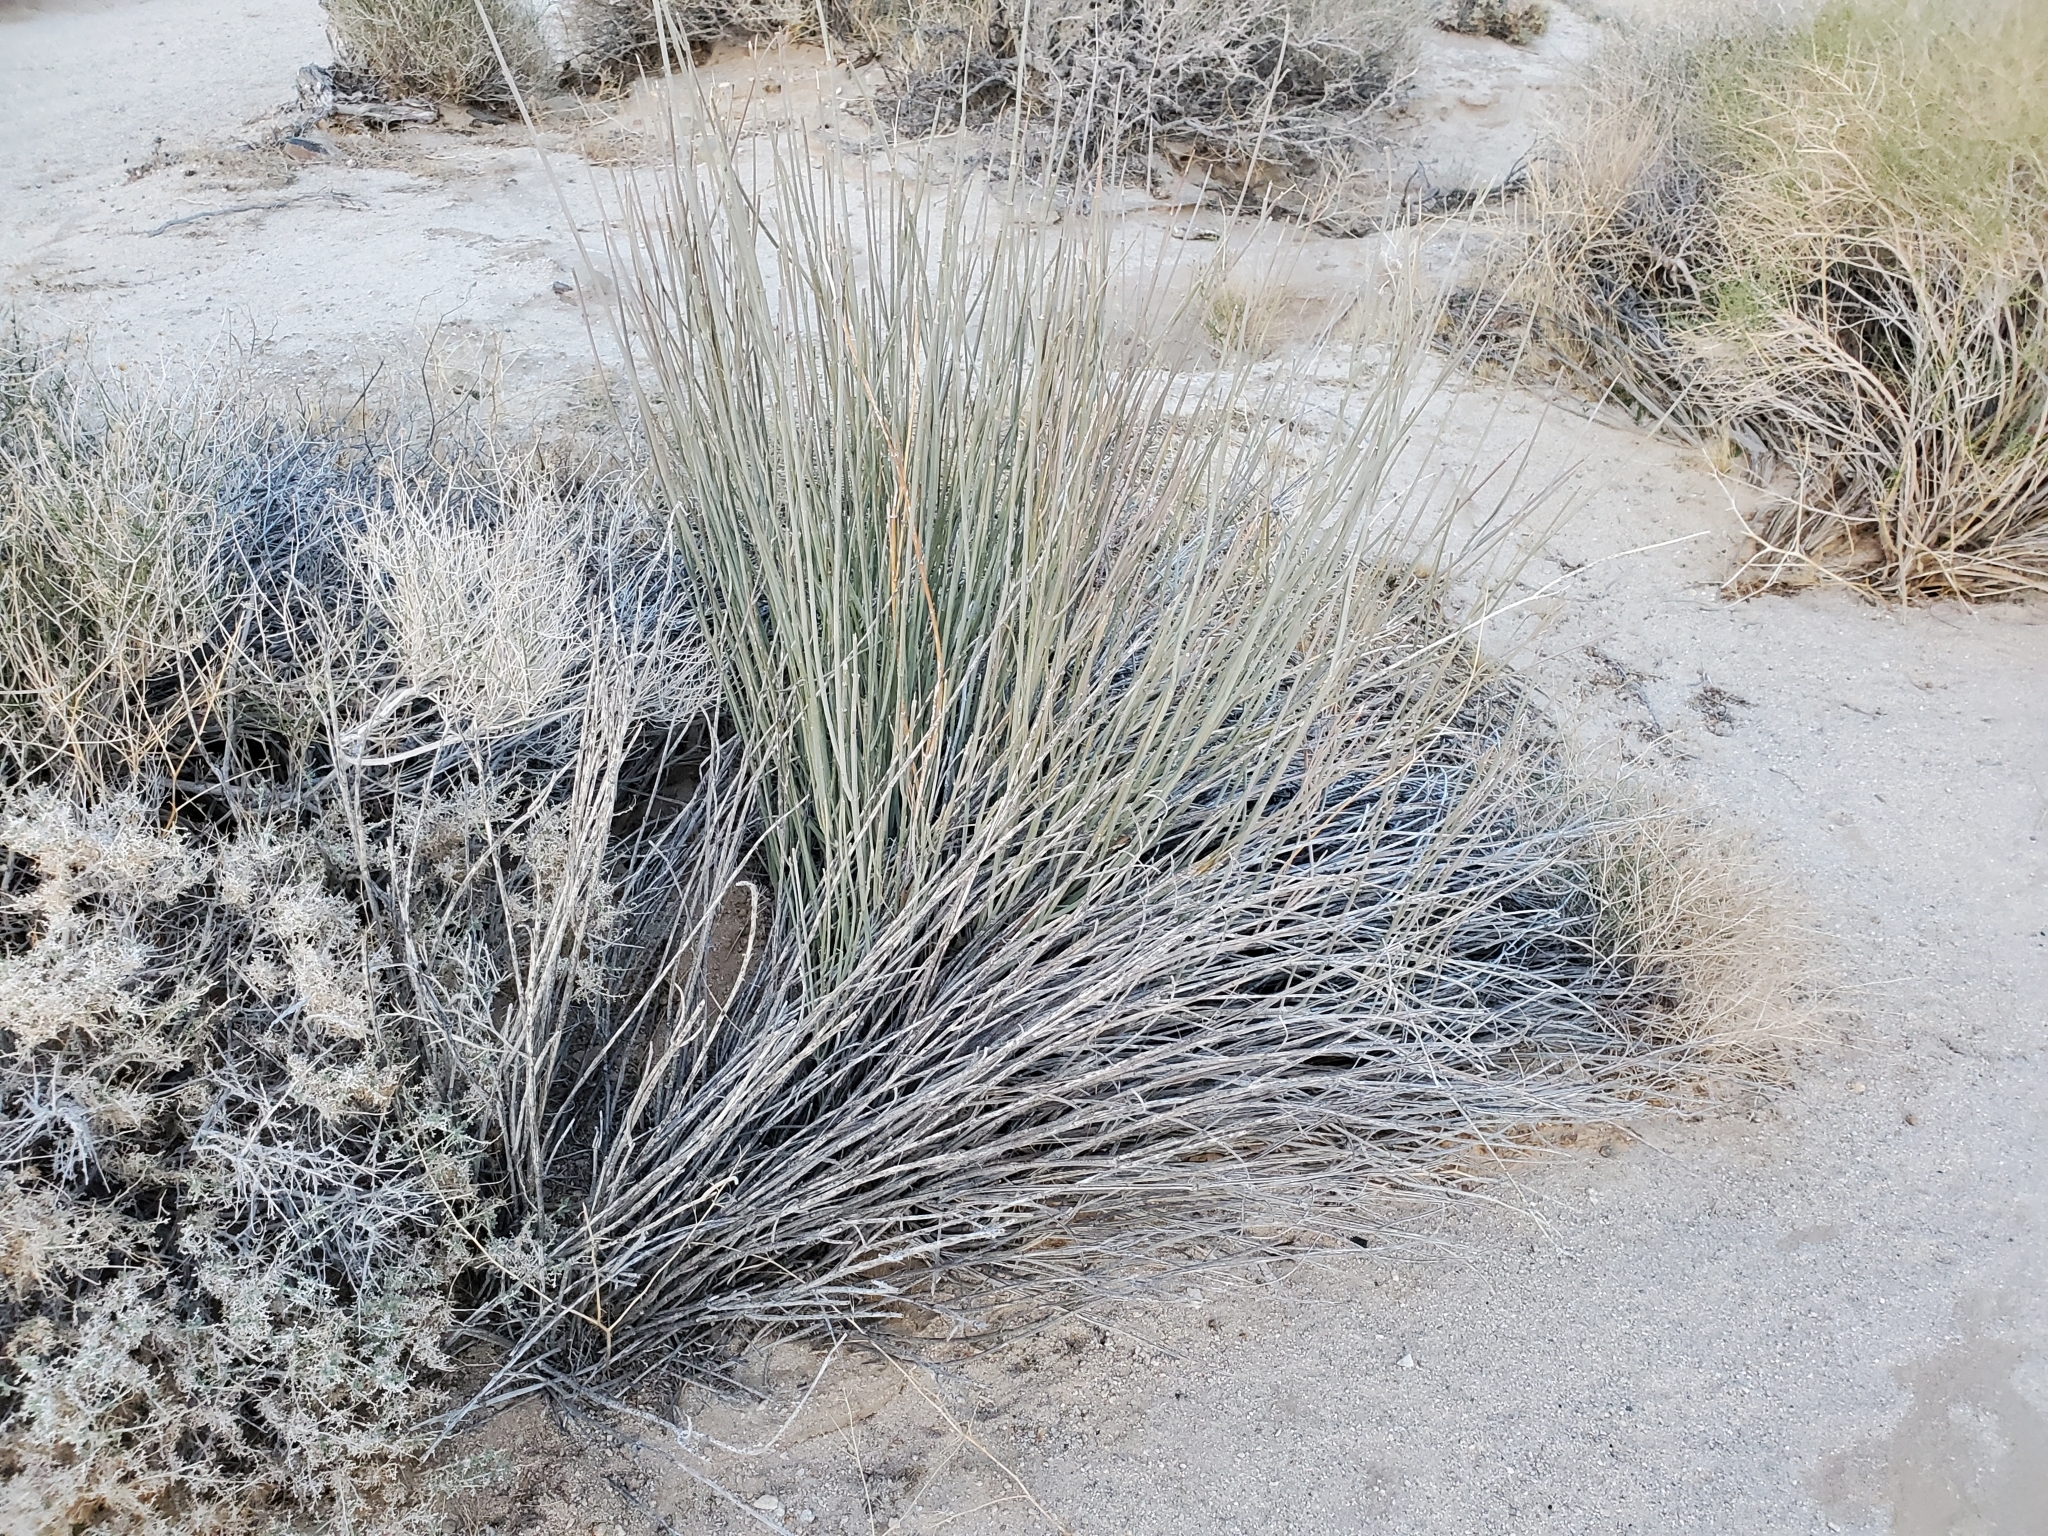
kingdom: Plantae
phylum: Tracheophyta
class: Magnoliopsida
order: Gentianales
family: Apocynaceae
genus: Asclepias
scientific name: Asclepias subulata
